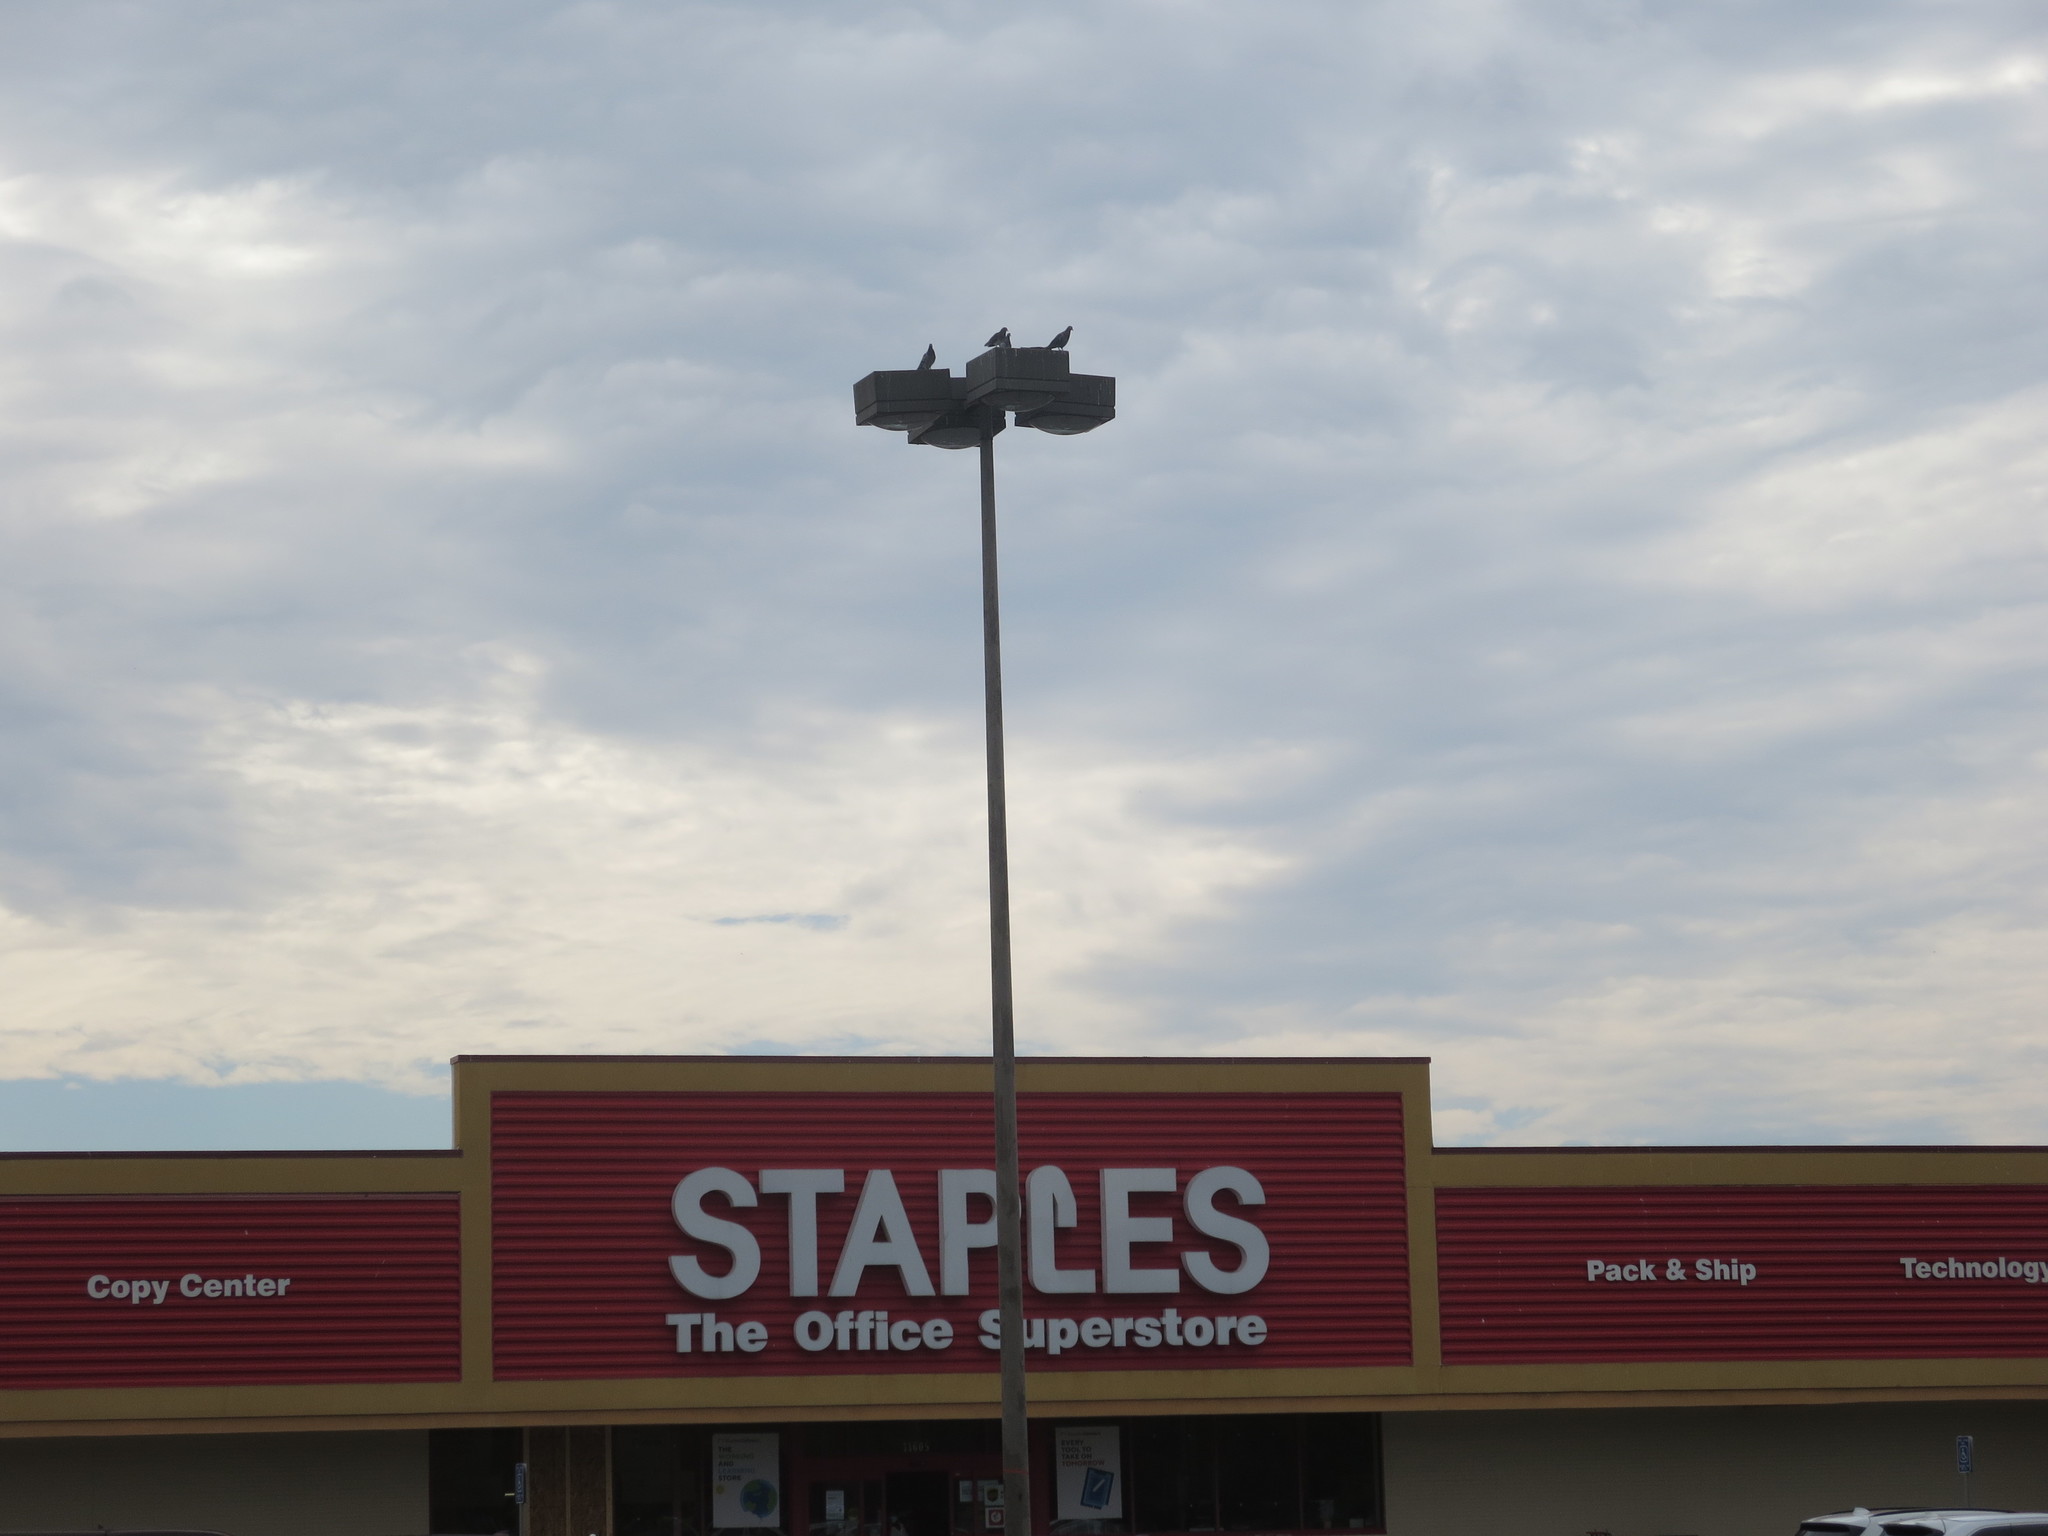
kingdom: Animalia
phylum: Chordata
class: Aves
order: Columbiformes
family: Columbidae
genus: Columba
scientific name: Columba livia
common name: Rock pigeon
